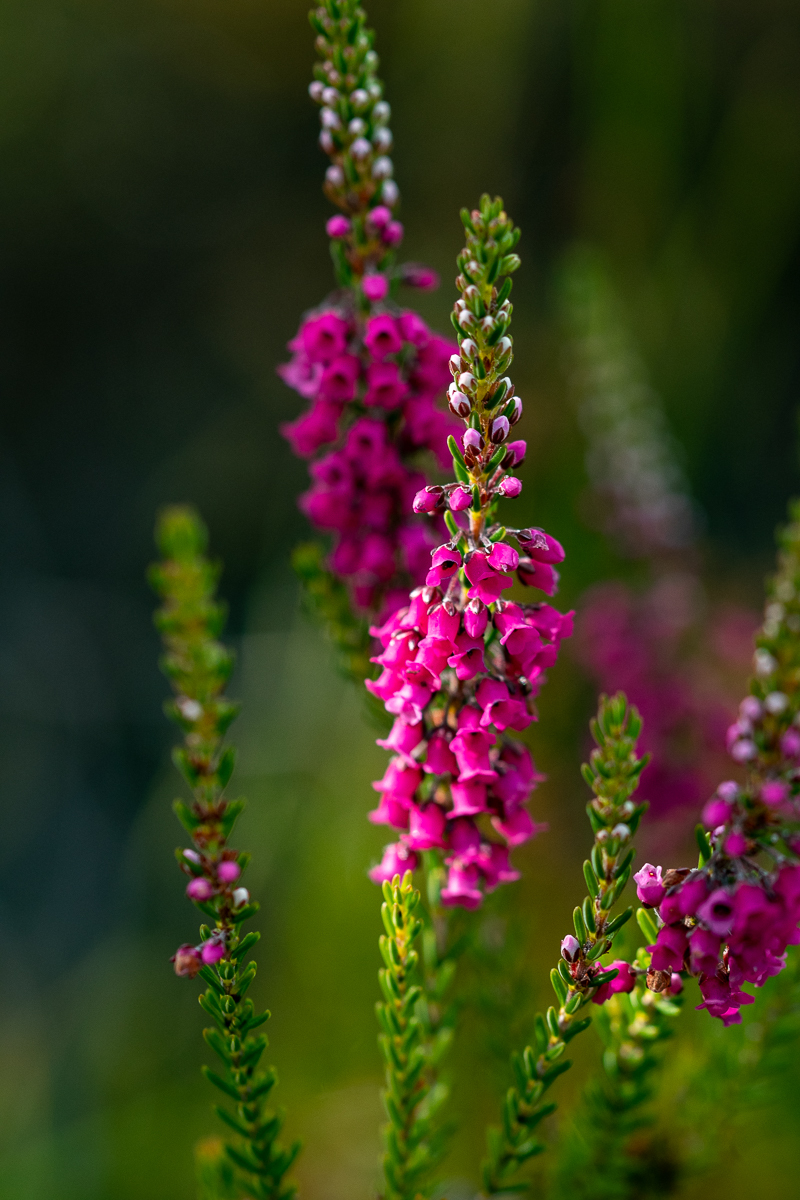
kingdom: Plantae
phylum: Tracheophyta
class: Magnoliopsida
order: Ericales
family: Ericaceae
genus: Erica
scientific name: Erica pulchella
